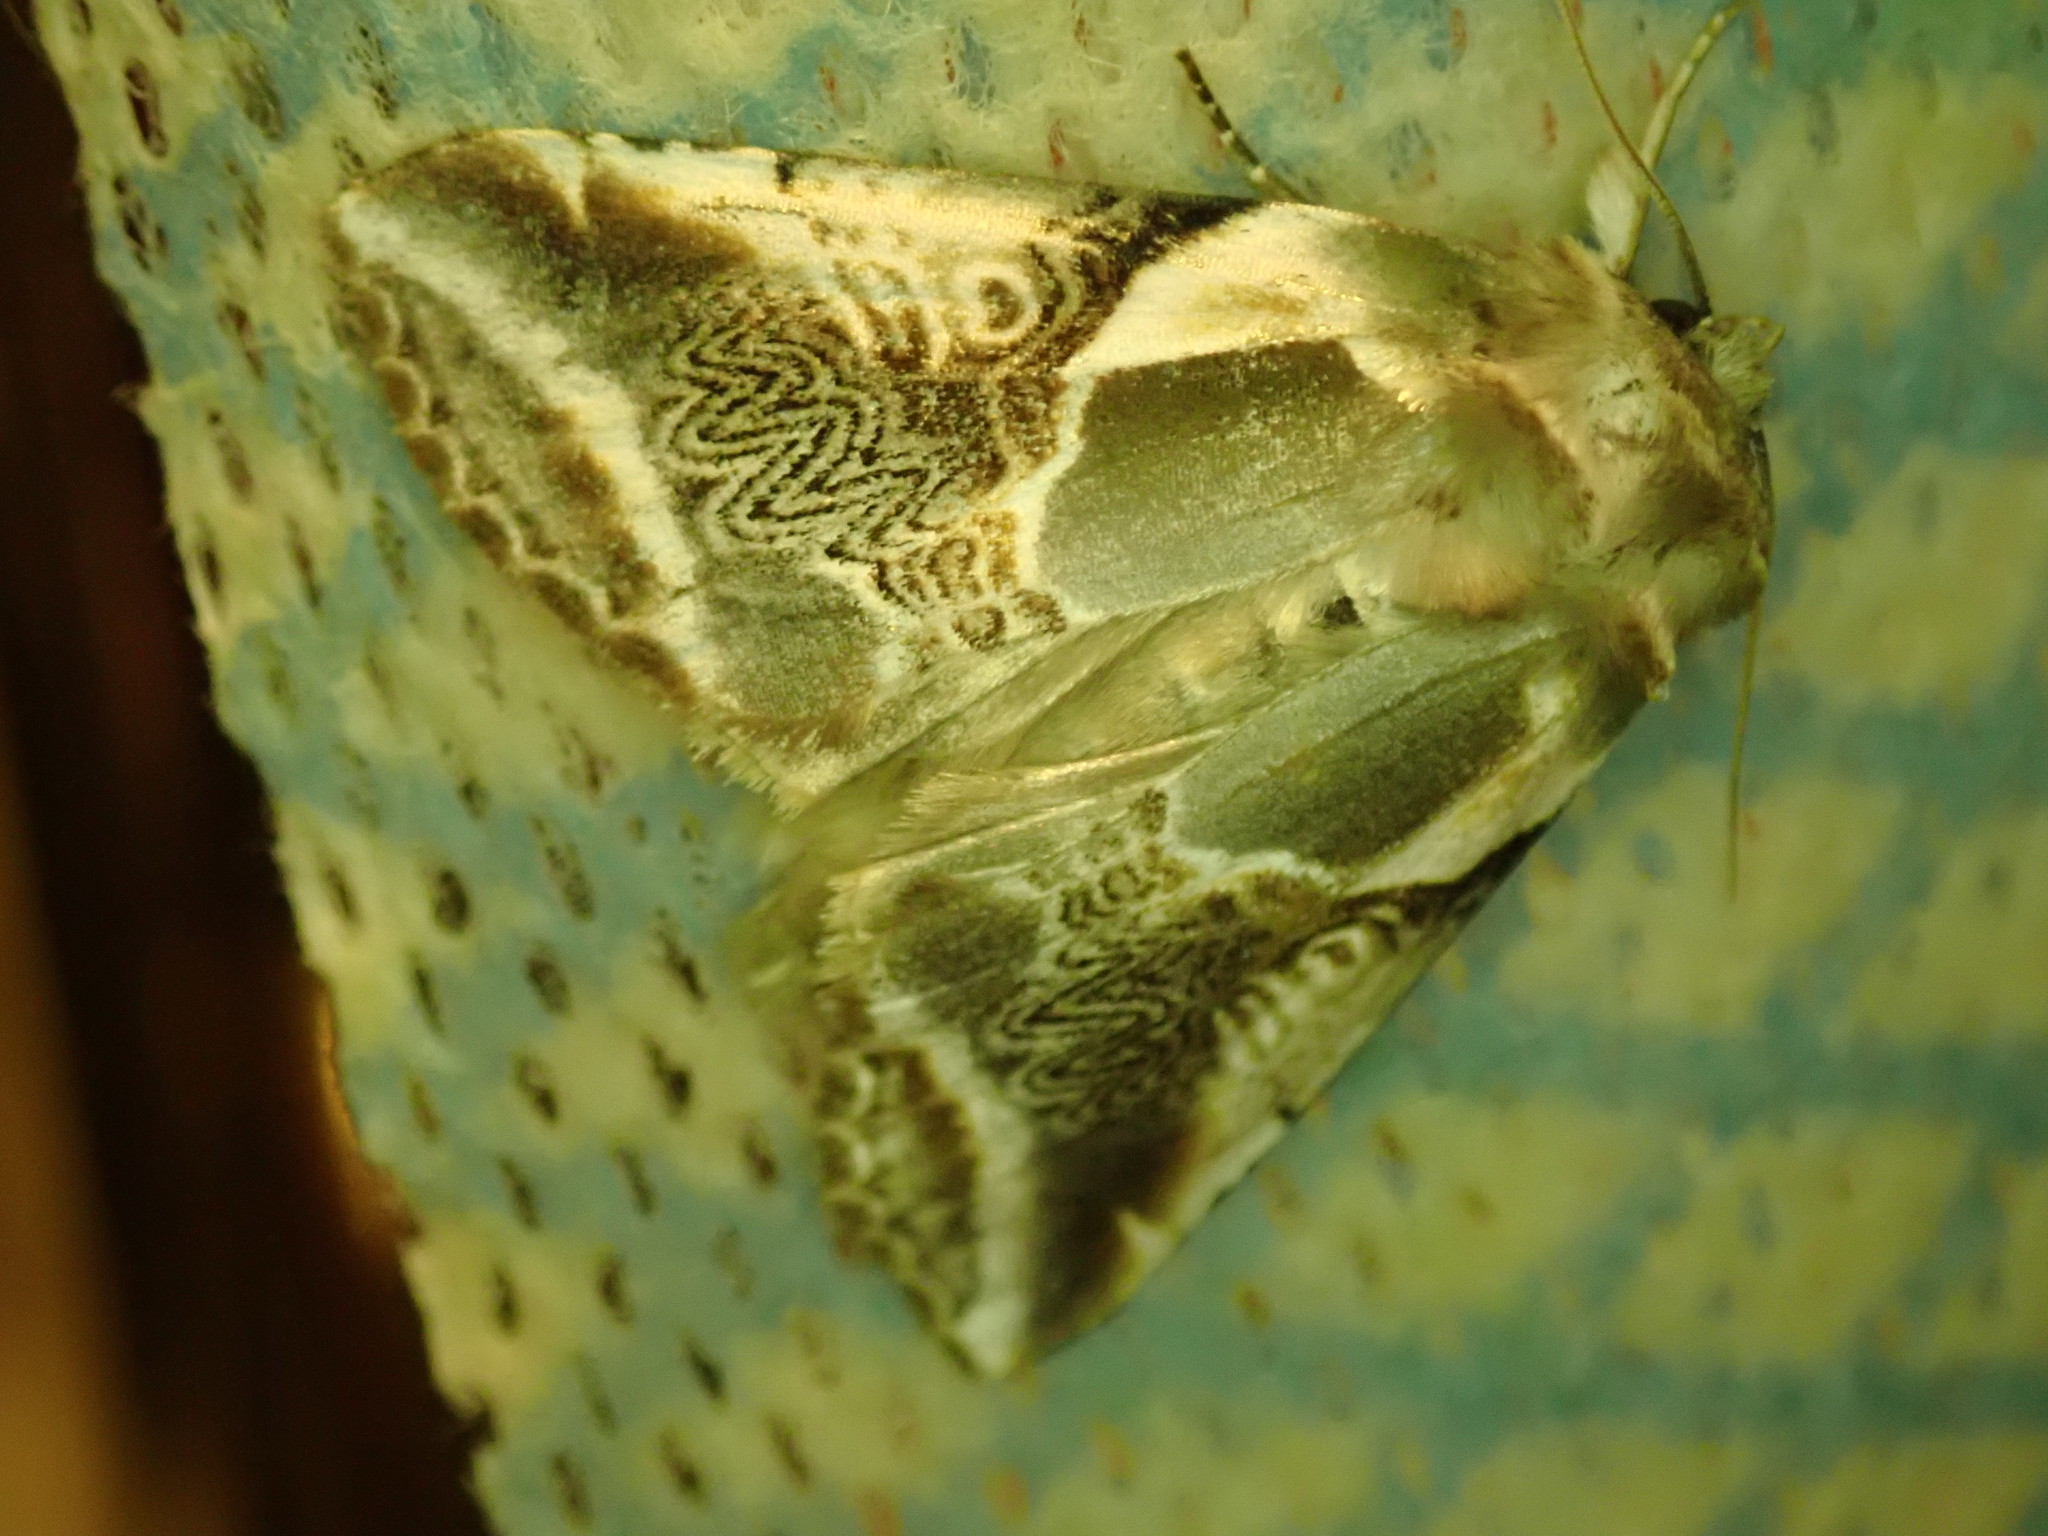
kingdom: Animalia
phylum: Arthropoda
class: Insecta
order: Lepidoptera
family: Drepanidae
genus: Habrosyne
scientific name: Habrosyne scripta
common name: Lettered habrosyne moth
